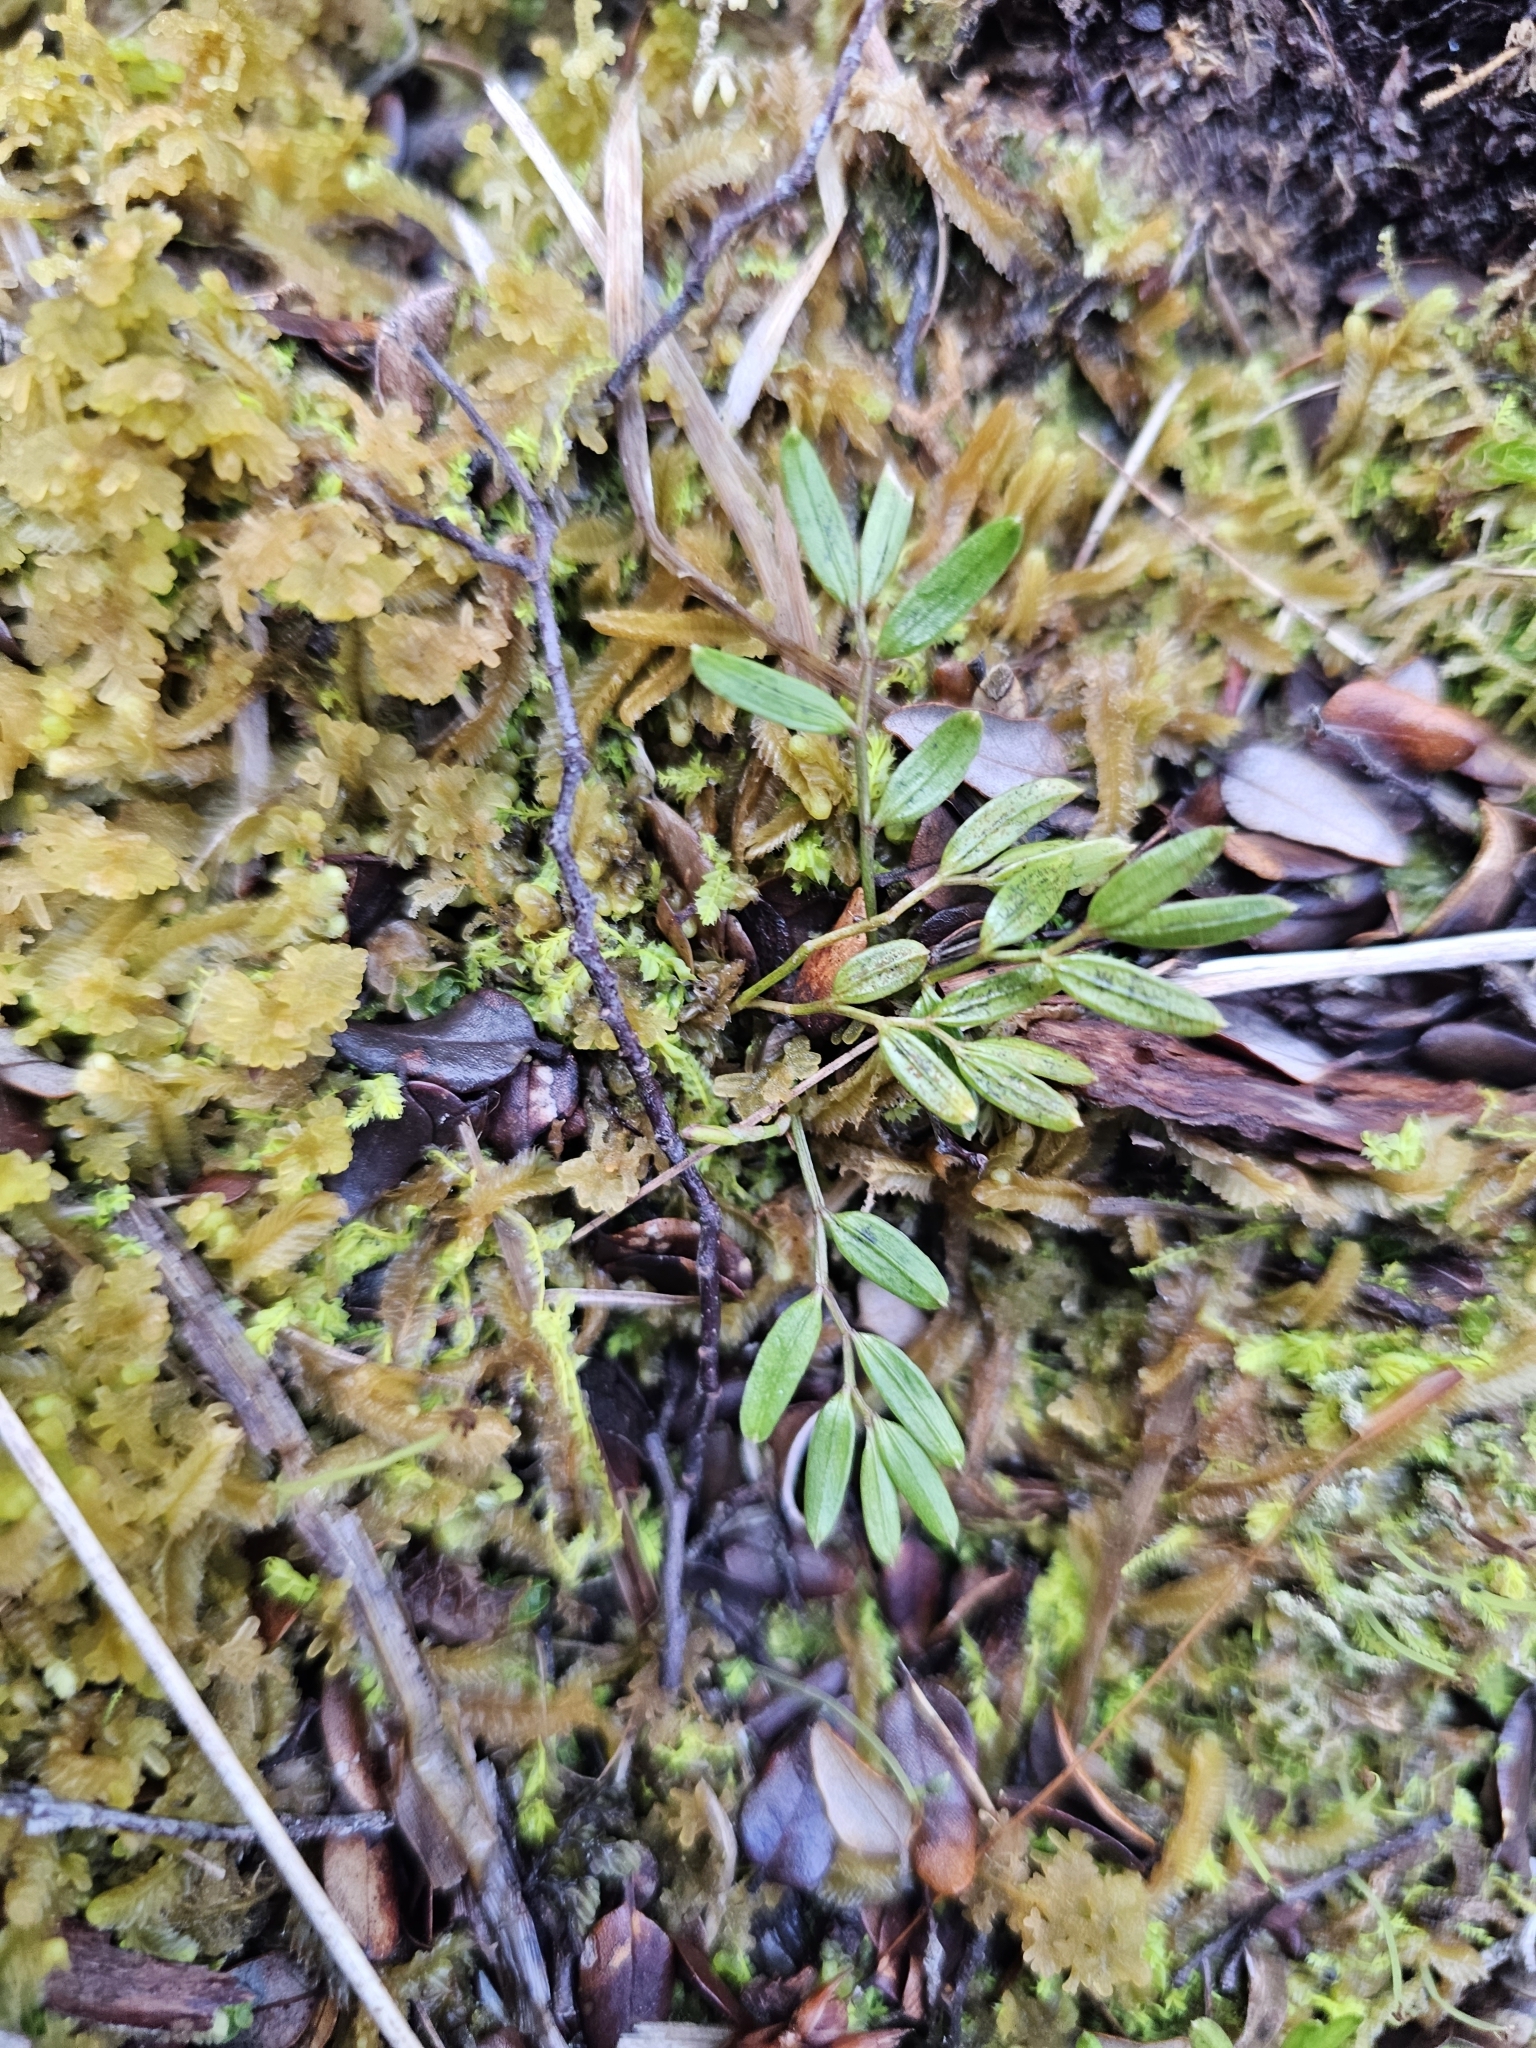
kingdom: Plantae
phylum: Tracheophyta
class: Liliopsida
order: Liliales
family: Alstroemeriaceae
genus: Luzuriaga
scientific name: Luzuriaga parviflora
